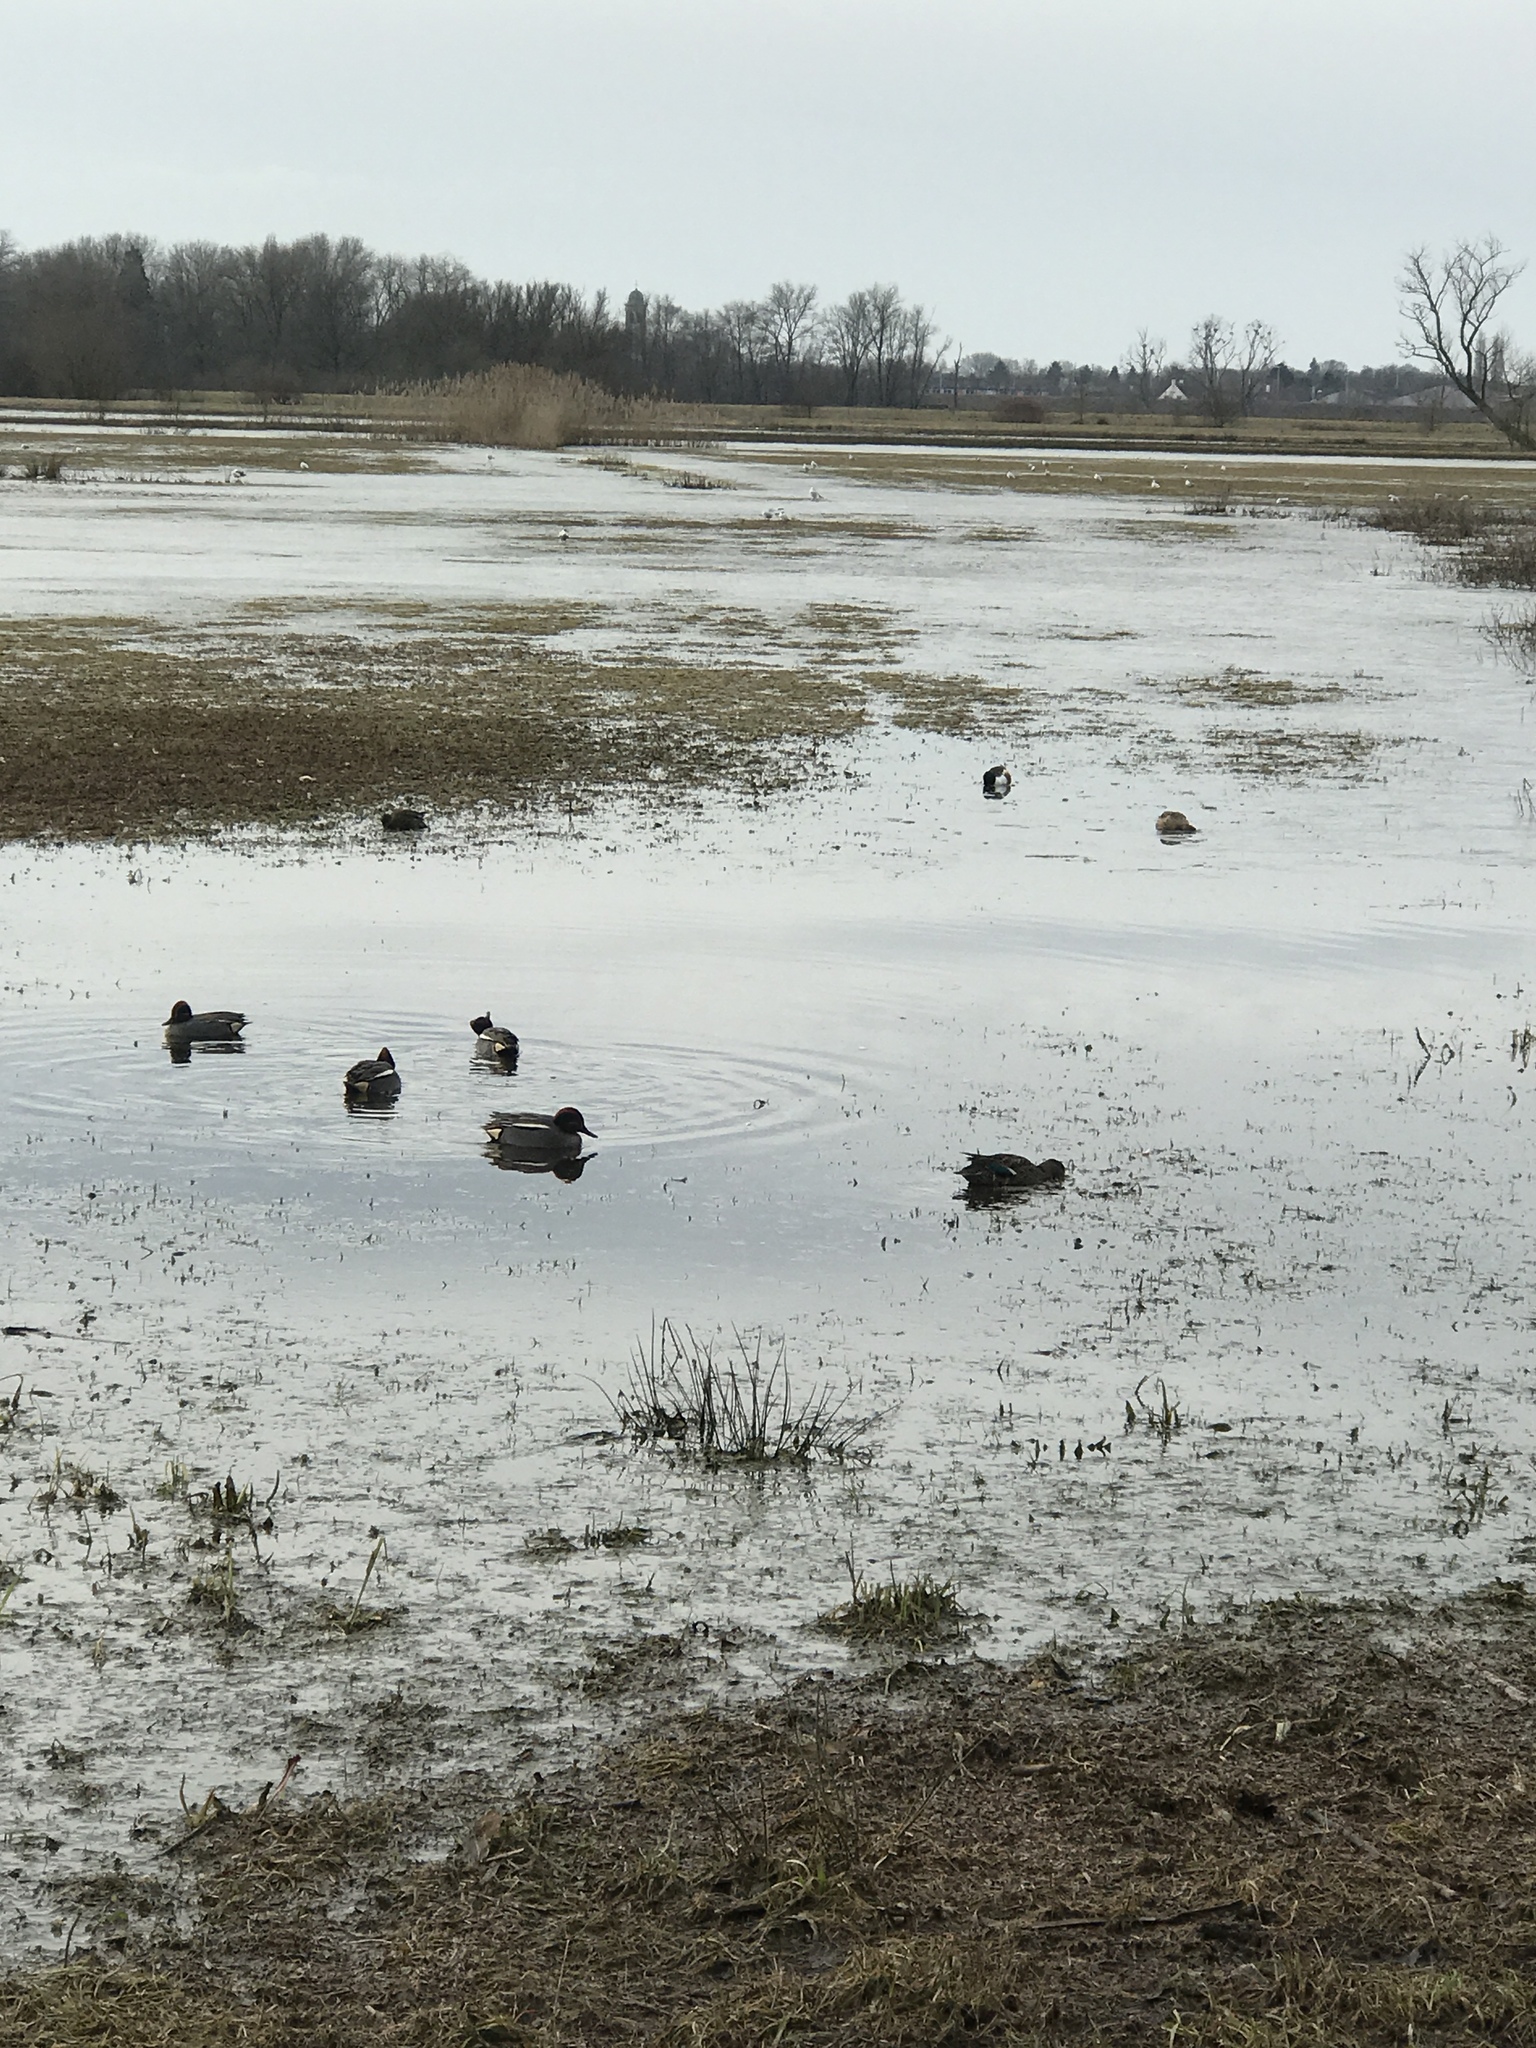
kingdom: Animalia
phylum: Chordata
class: Aves
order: Anseriformes
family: Anatidae
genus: Anas
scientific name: Anas crecca
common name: Eurasian teal
